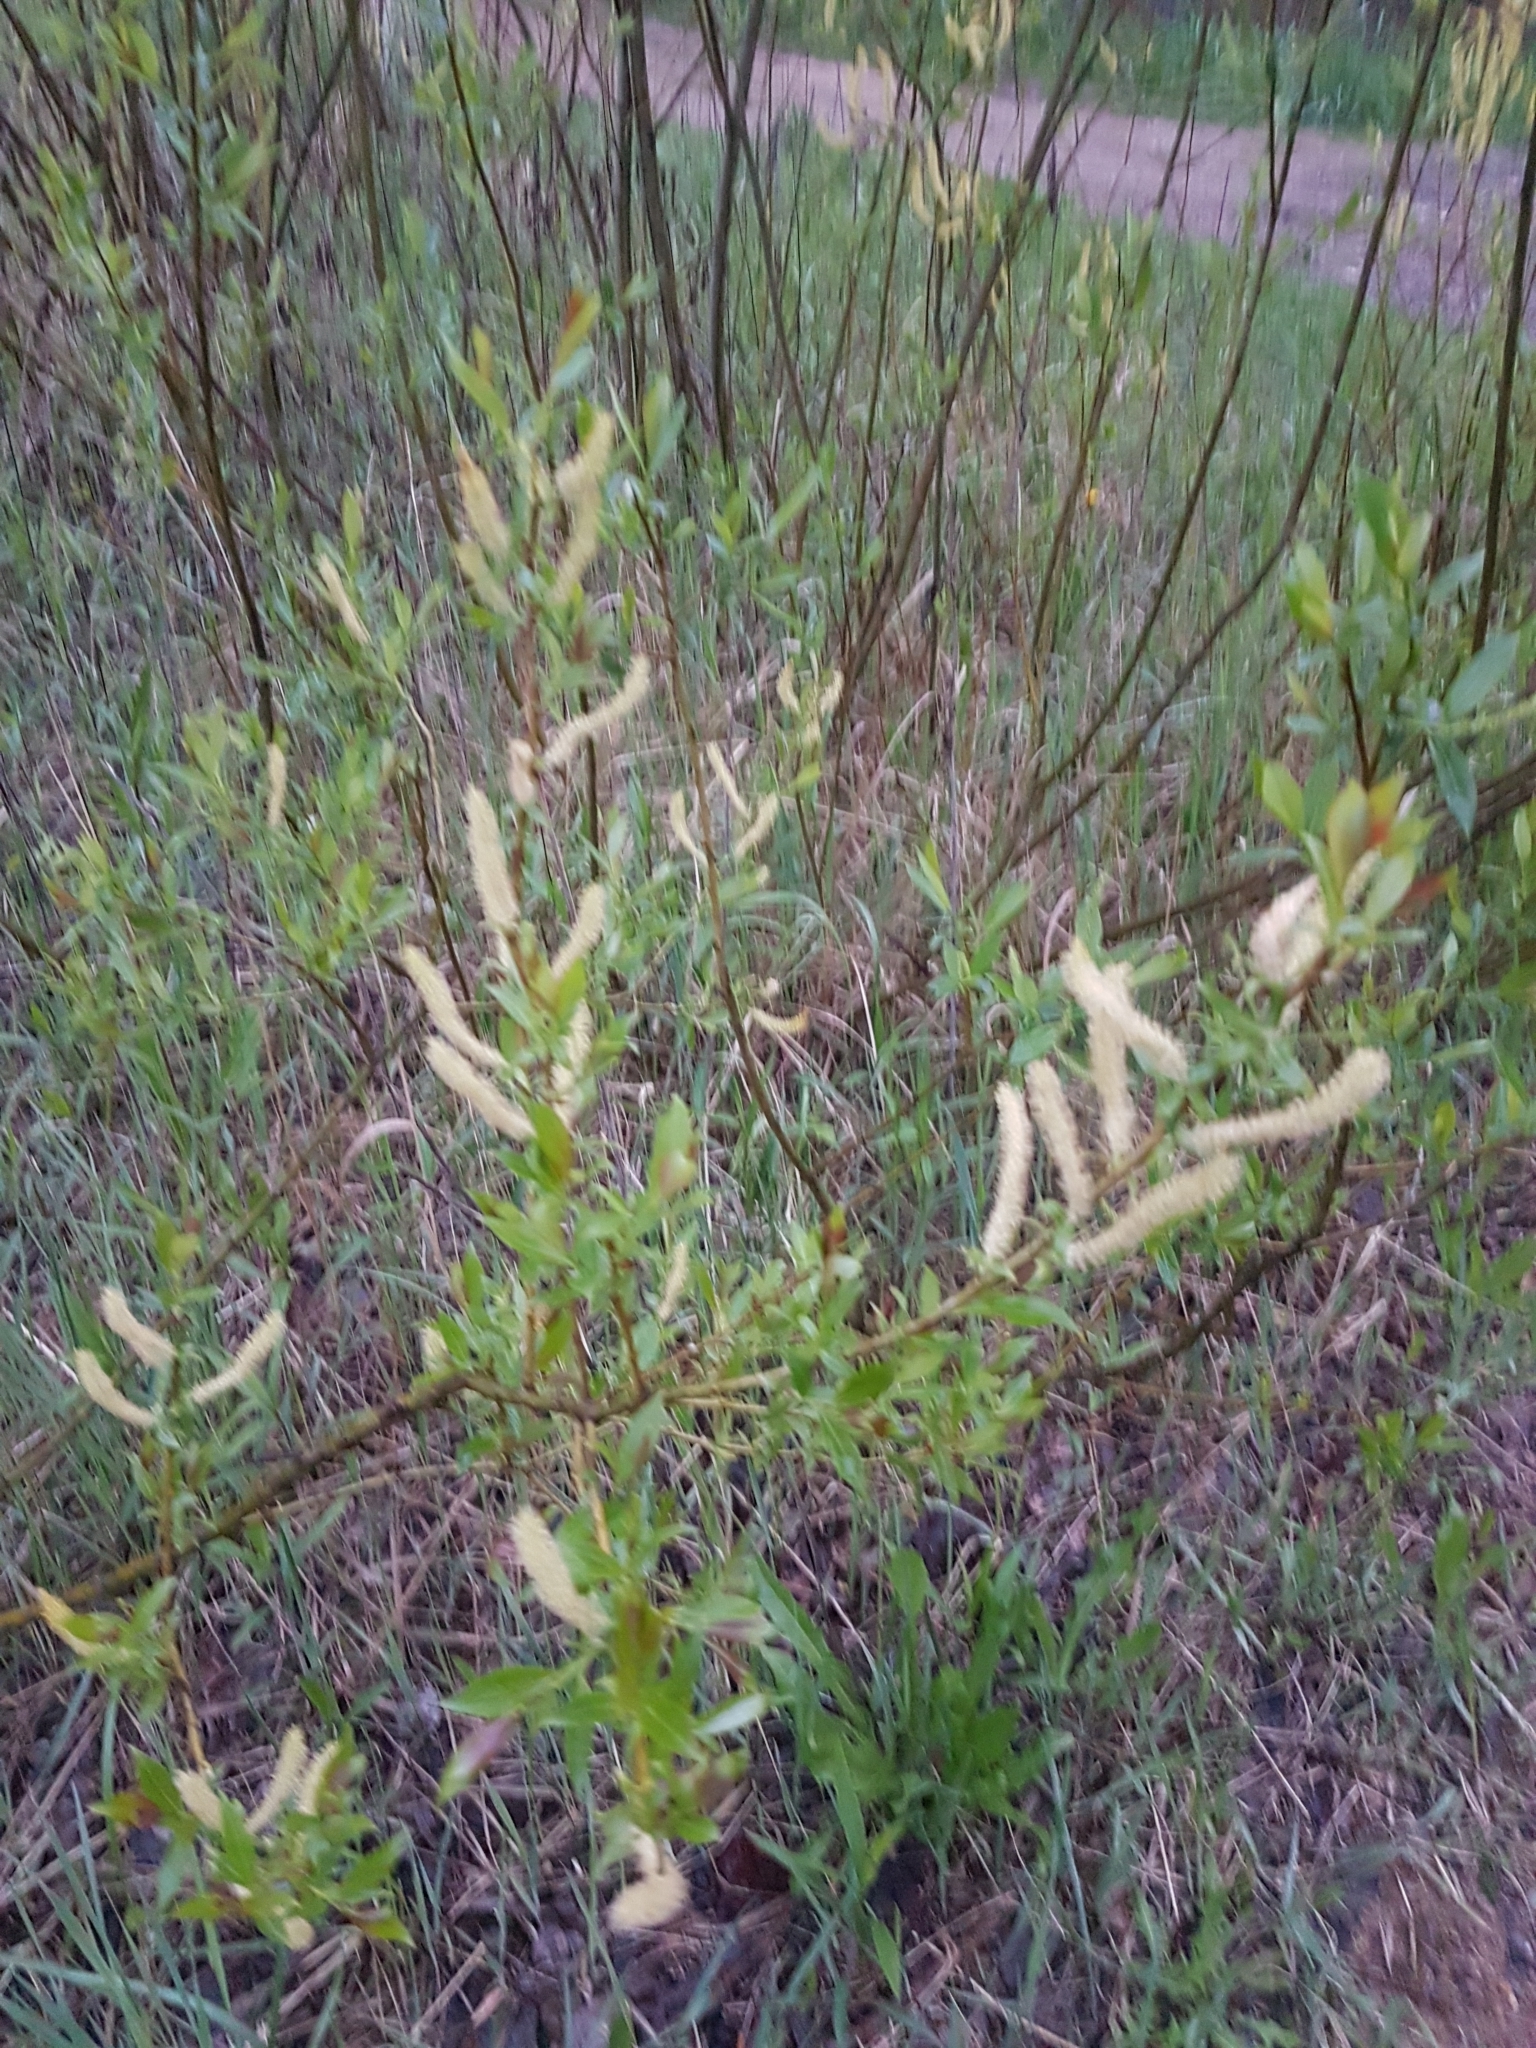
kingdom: Plantae
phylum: Tracheophyta
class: Magnoliopsida
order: Malpighiales
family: Salicaceae
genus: Salix
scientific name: Salix triandra
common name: Almond willow
